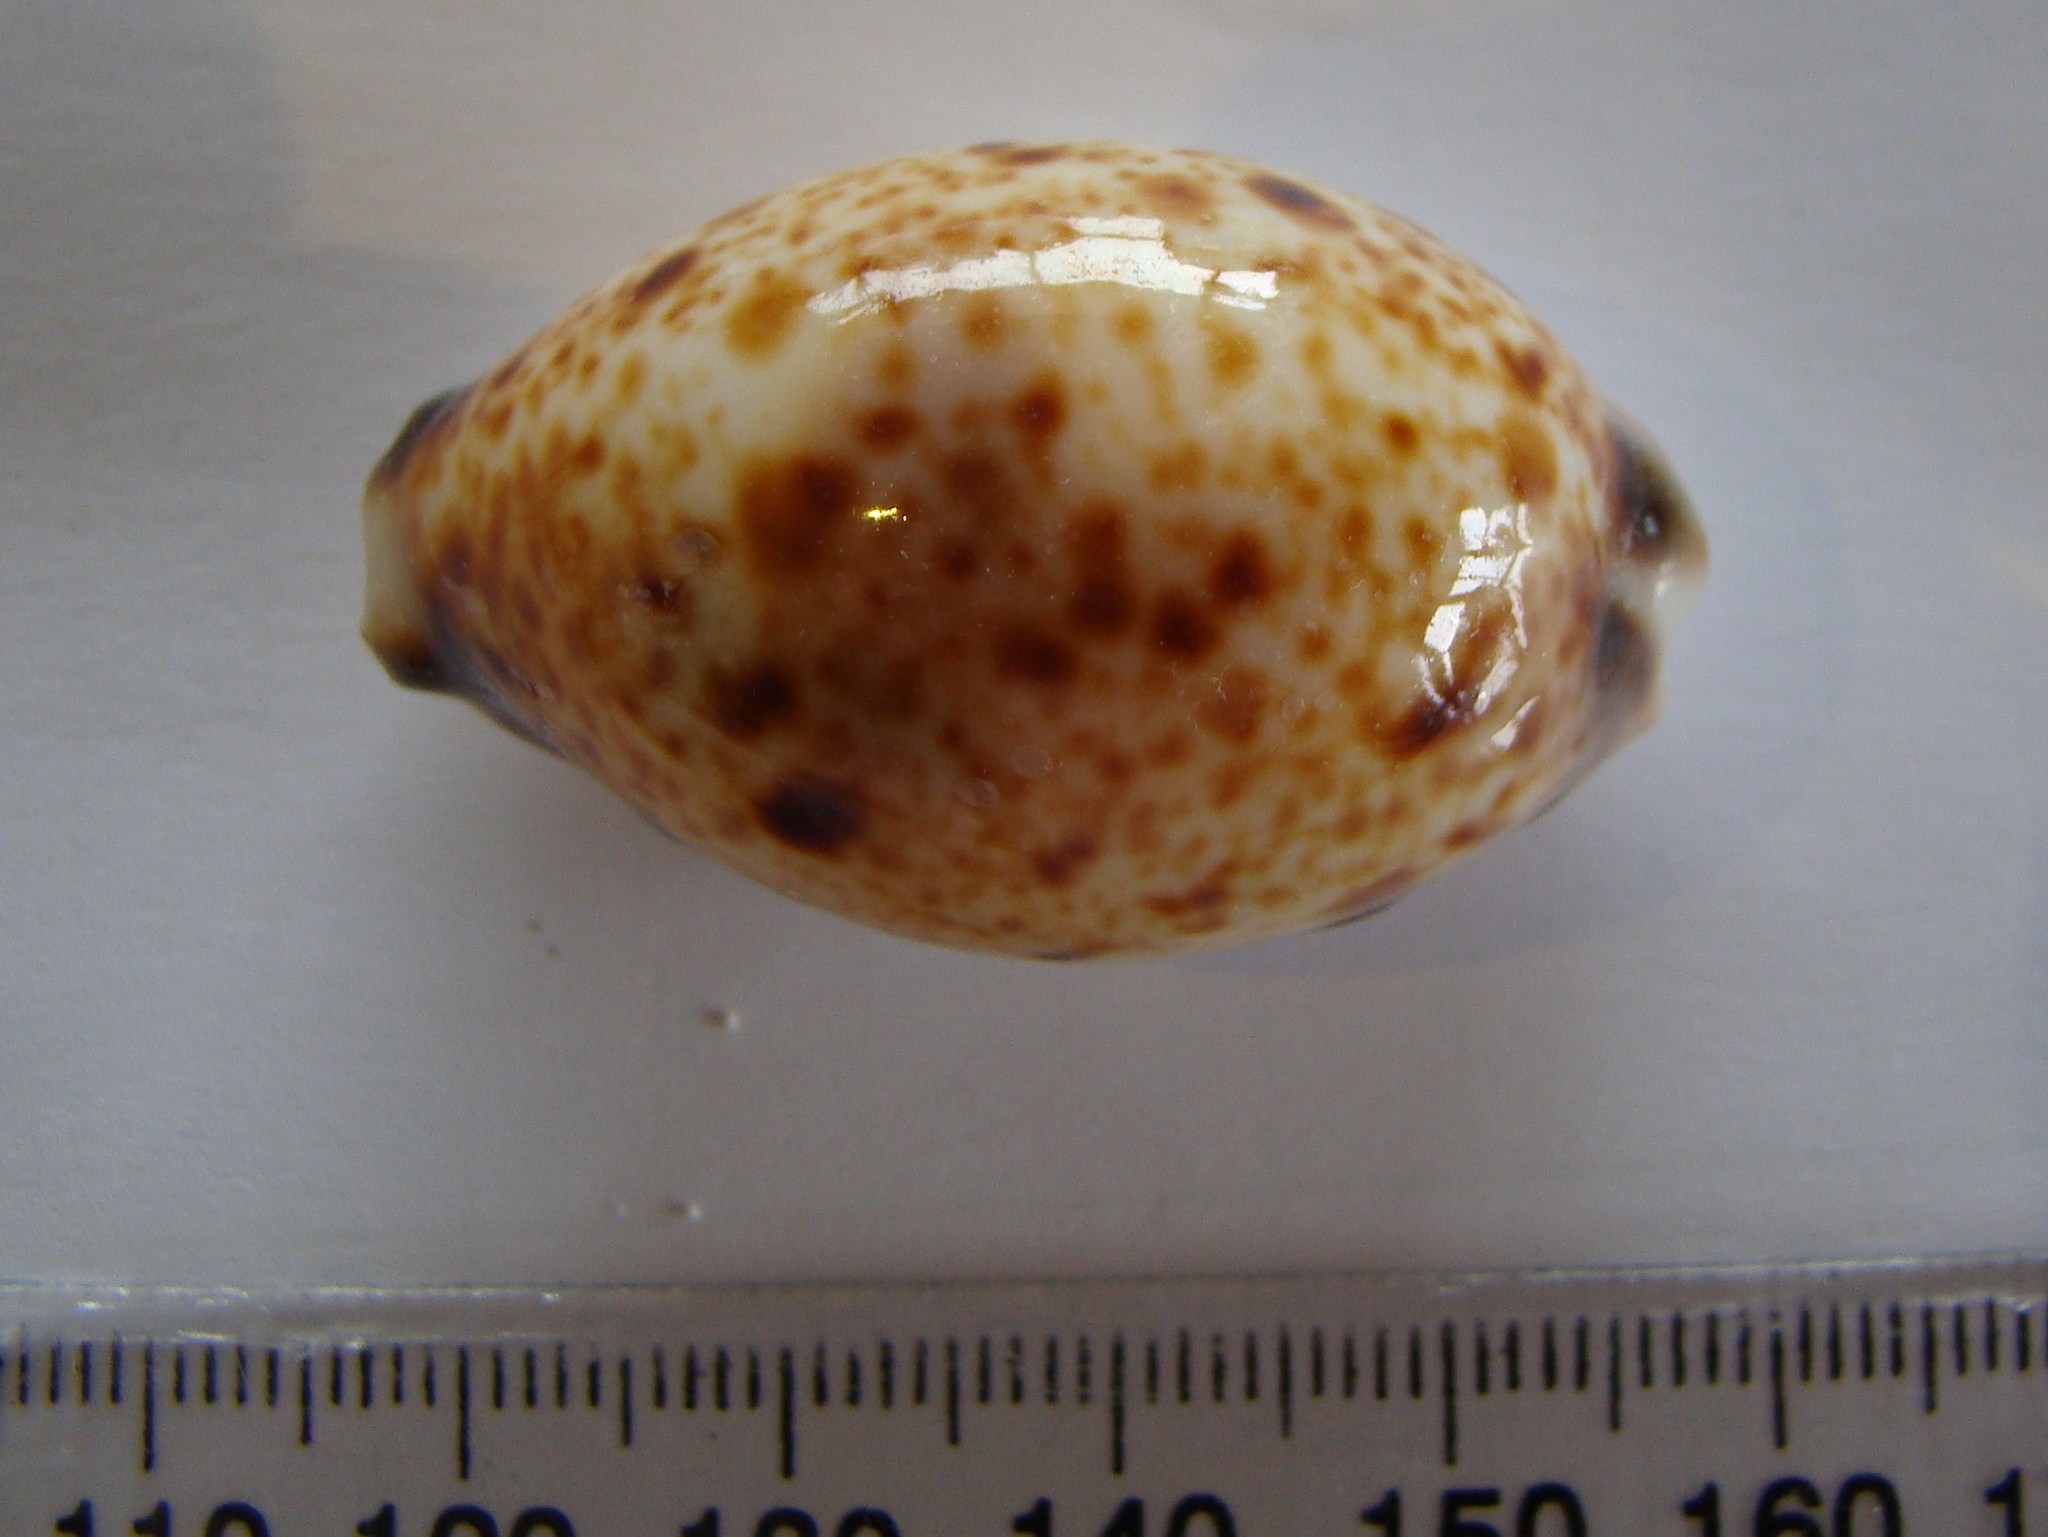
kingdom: Animalia
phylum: Mollusca
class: Gastropoda
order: Littorinimorpha
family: Cypraeidae
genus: Lyncina
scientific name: Lyncina lynx
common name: Bobcat cowrie
